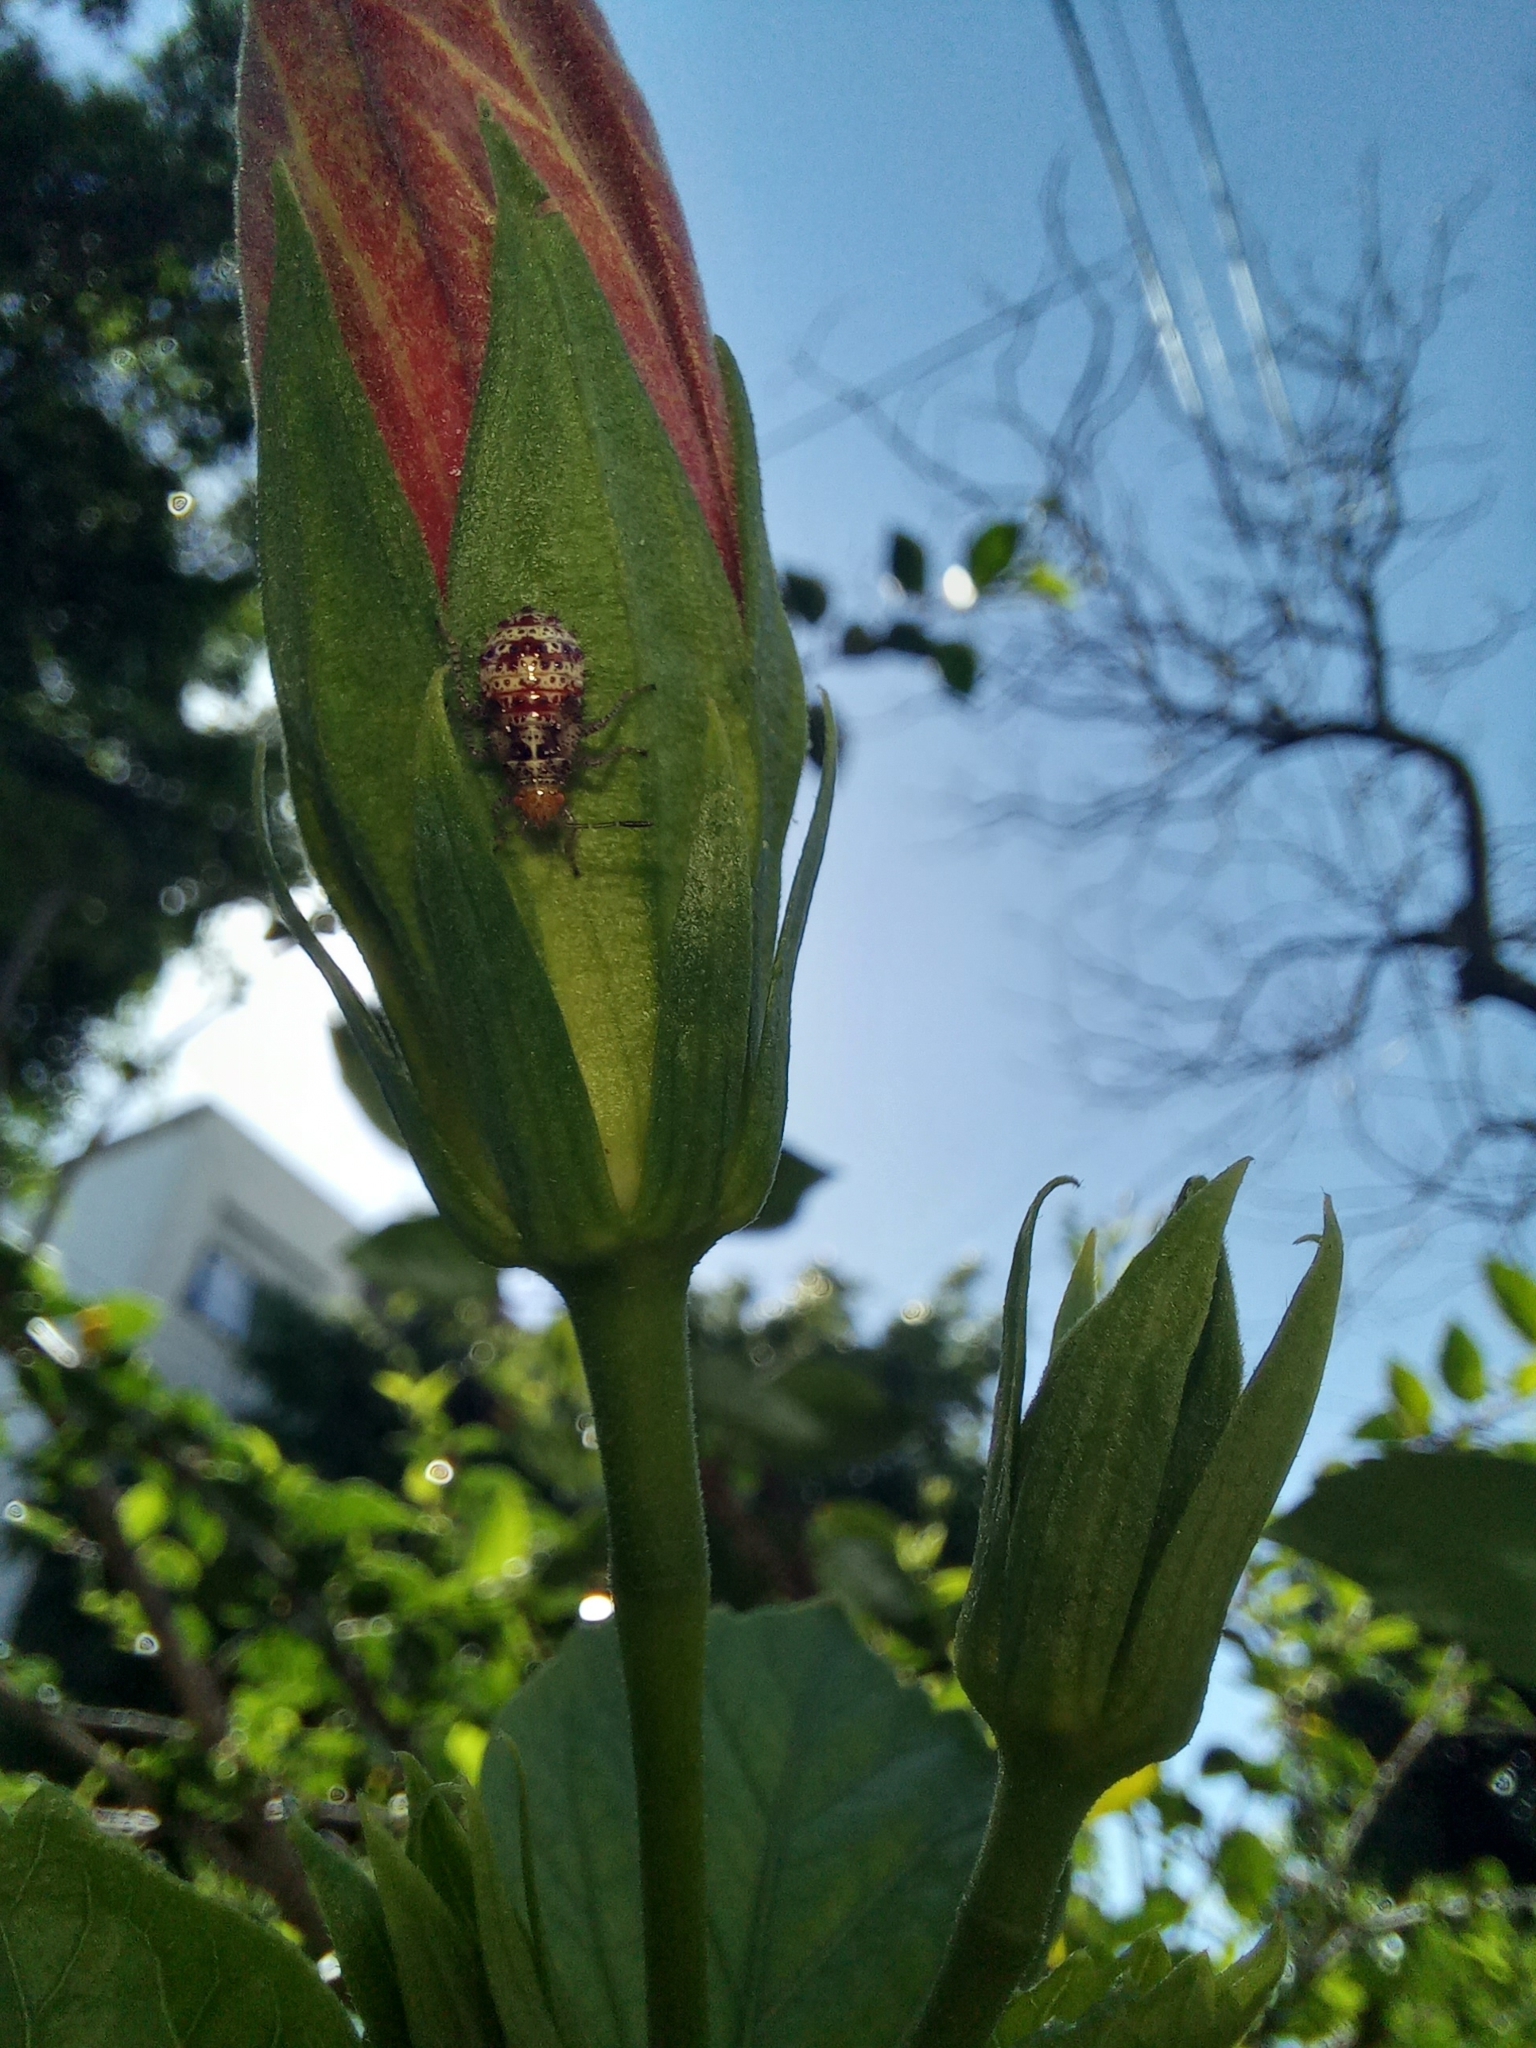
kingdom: Animalia
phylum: Arthropoda
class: Insecta
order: Hemiptera
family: Rhopalidae
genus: Niesthrea
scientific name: Niesthrea
